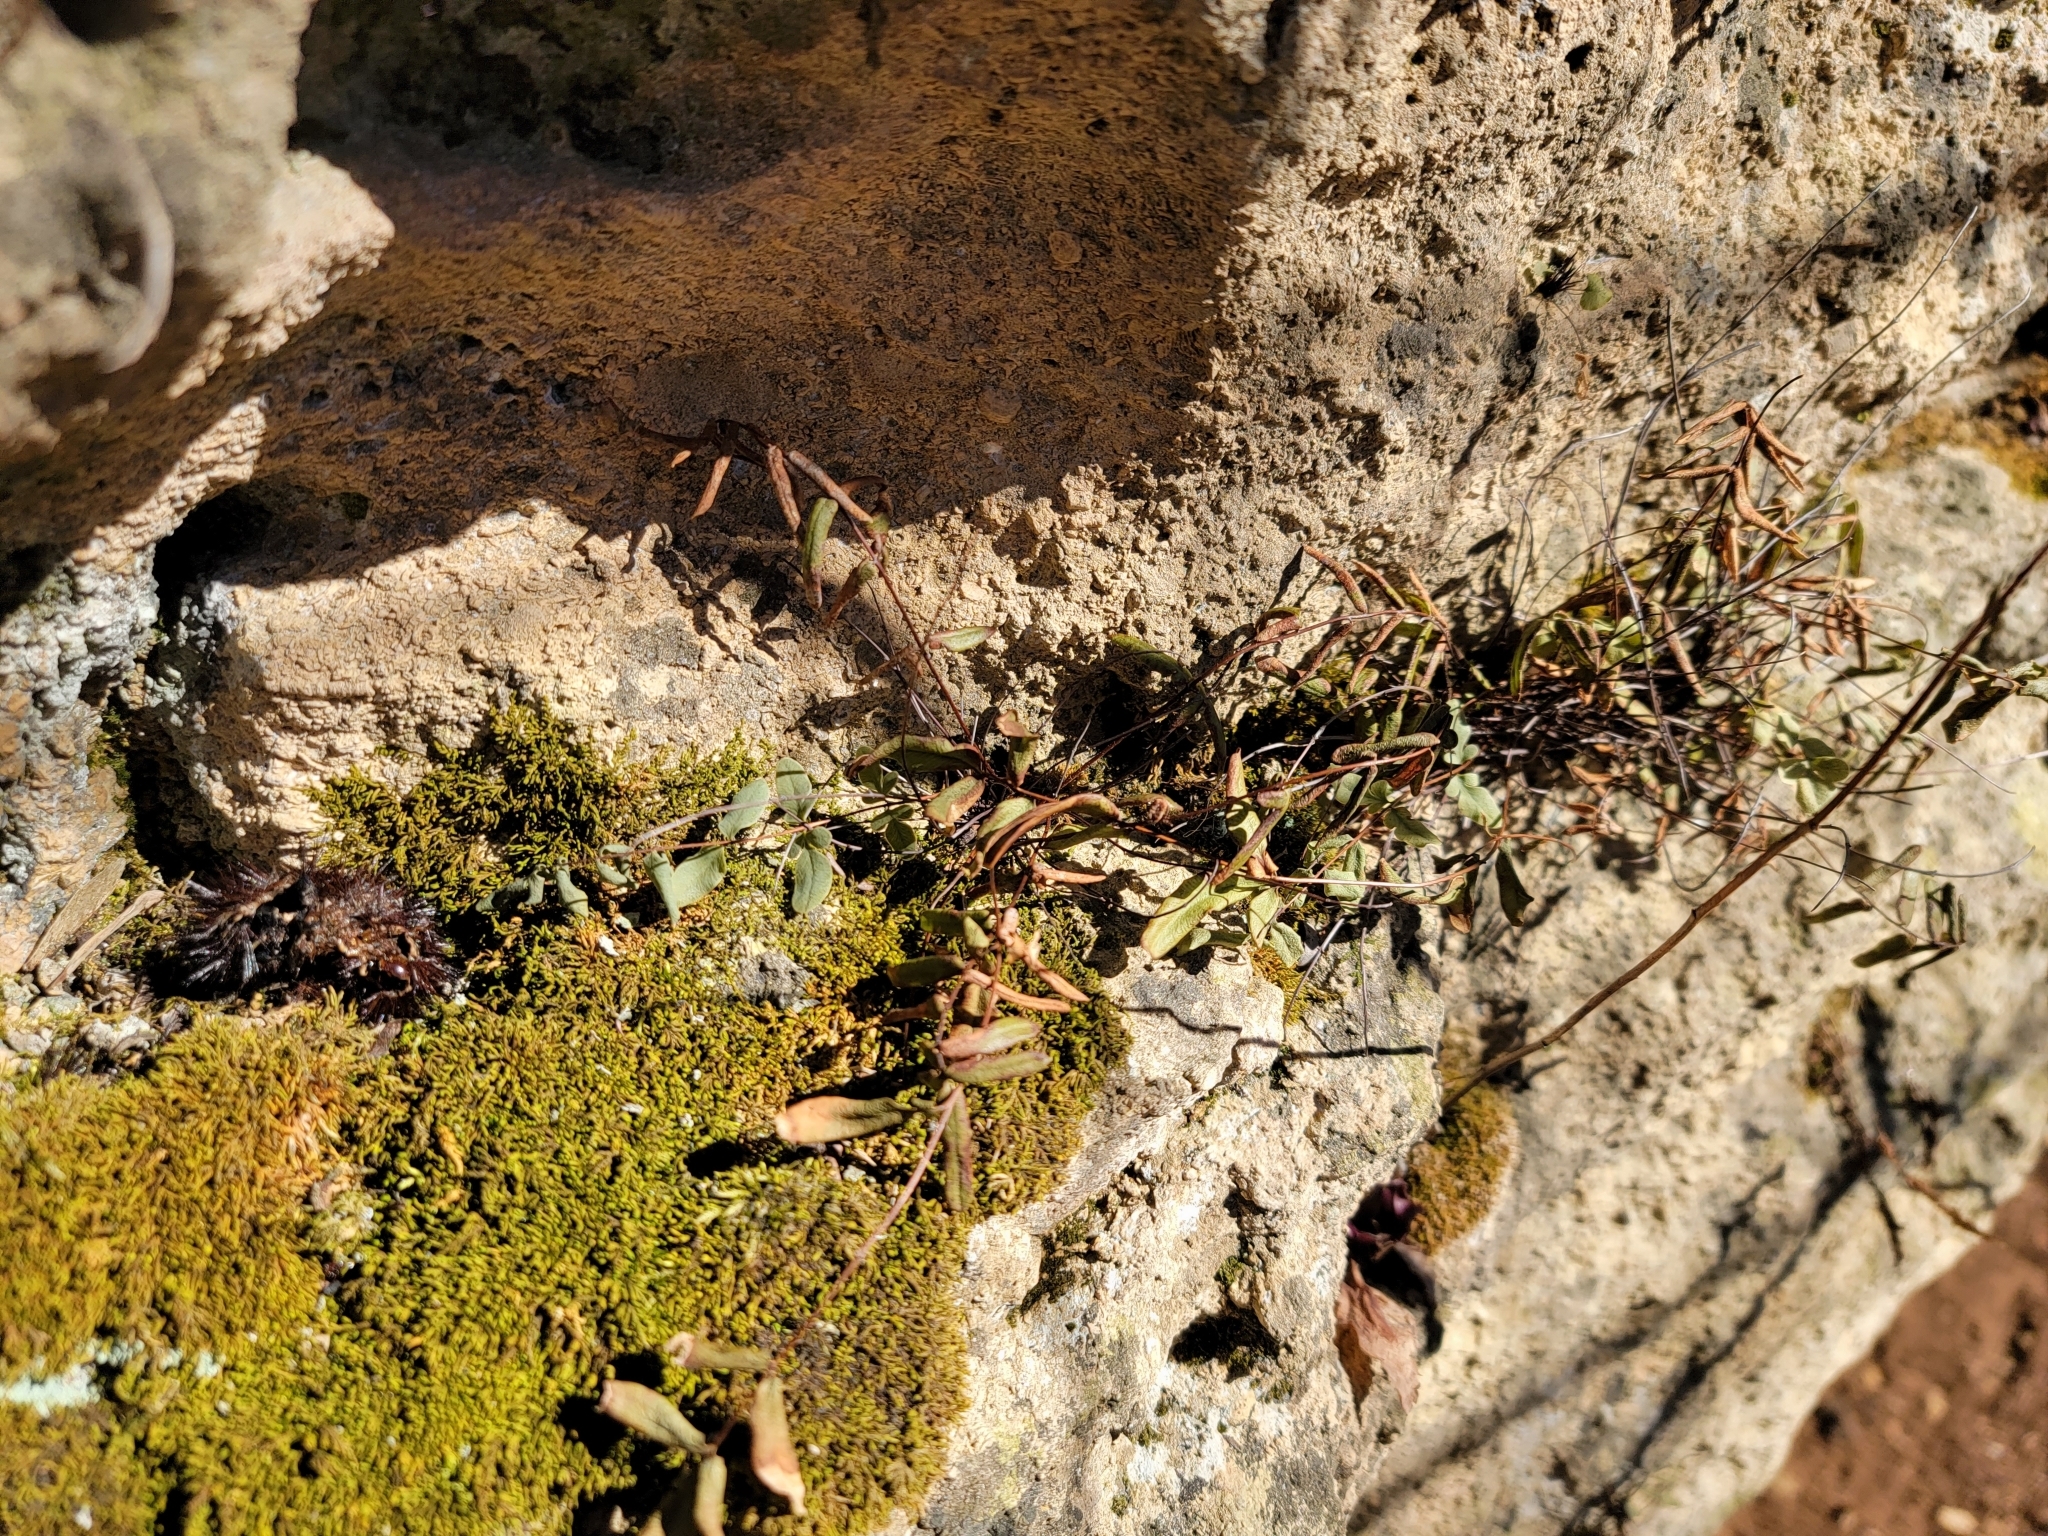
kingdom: Plantae
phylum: Tracheophyta
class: Polypodiopsida
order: Polypodiales
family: Pteridaceae
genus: Pellaea
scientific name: Pellaea glabella
